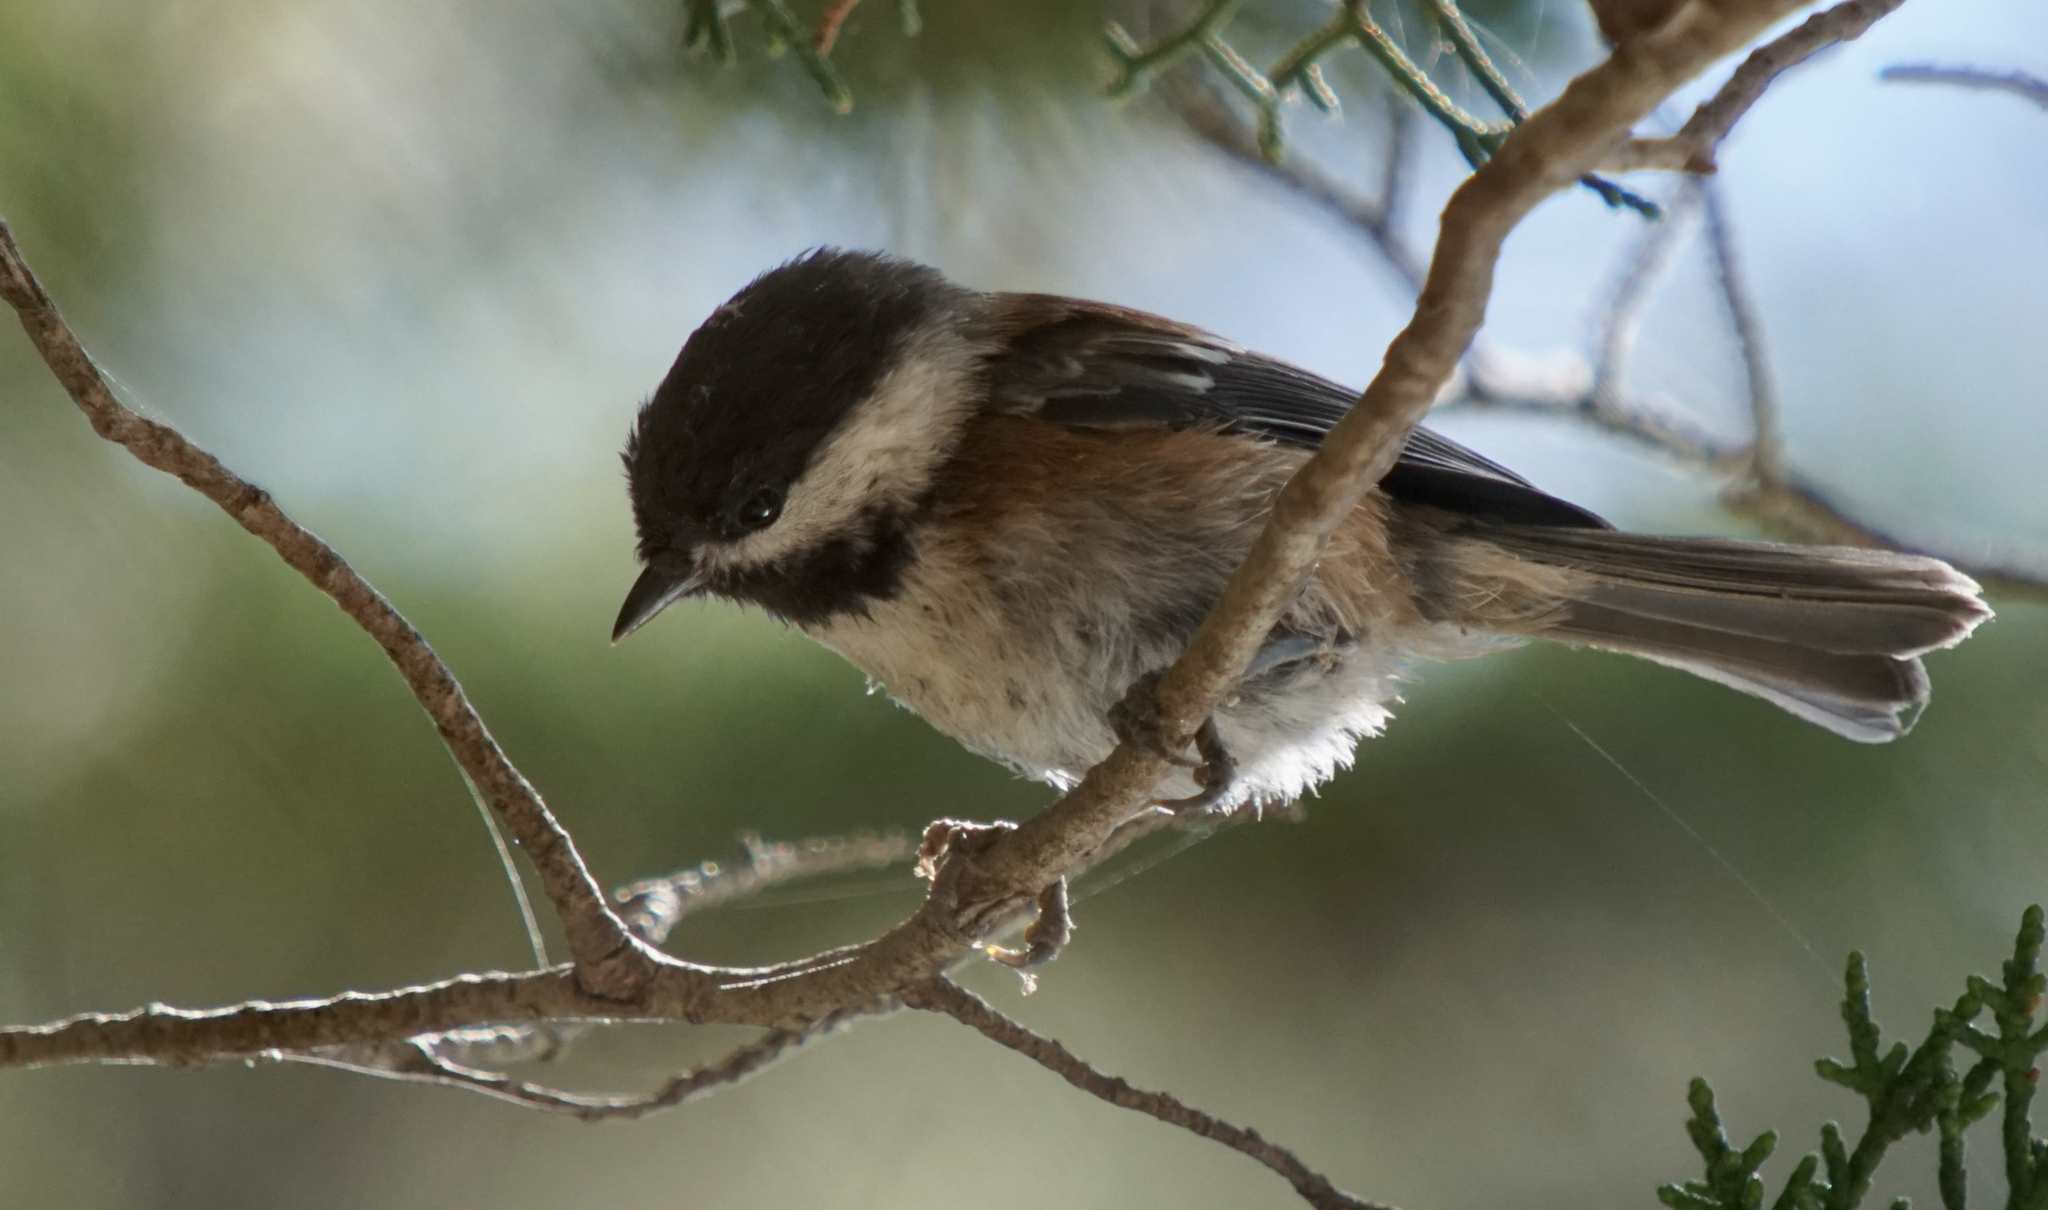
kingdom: Animalia
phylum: Chordata
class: Aves
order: Passeriformes
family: Paridae
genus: Poecile
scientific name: Poecile rufescens
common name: Chestnut-backed chickadee
